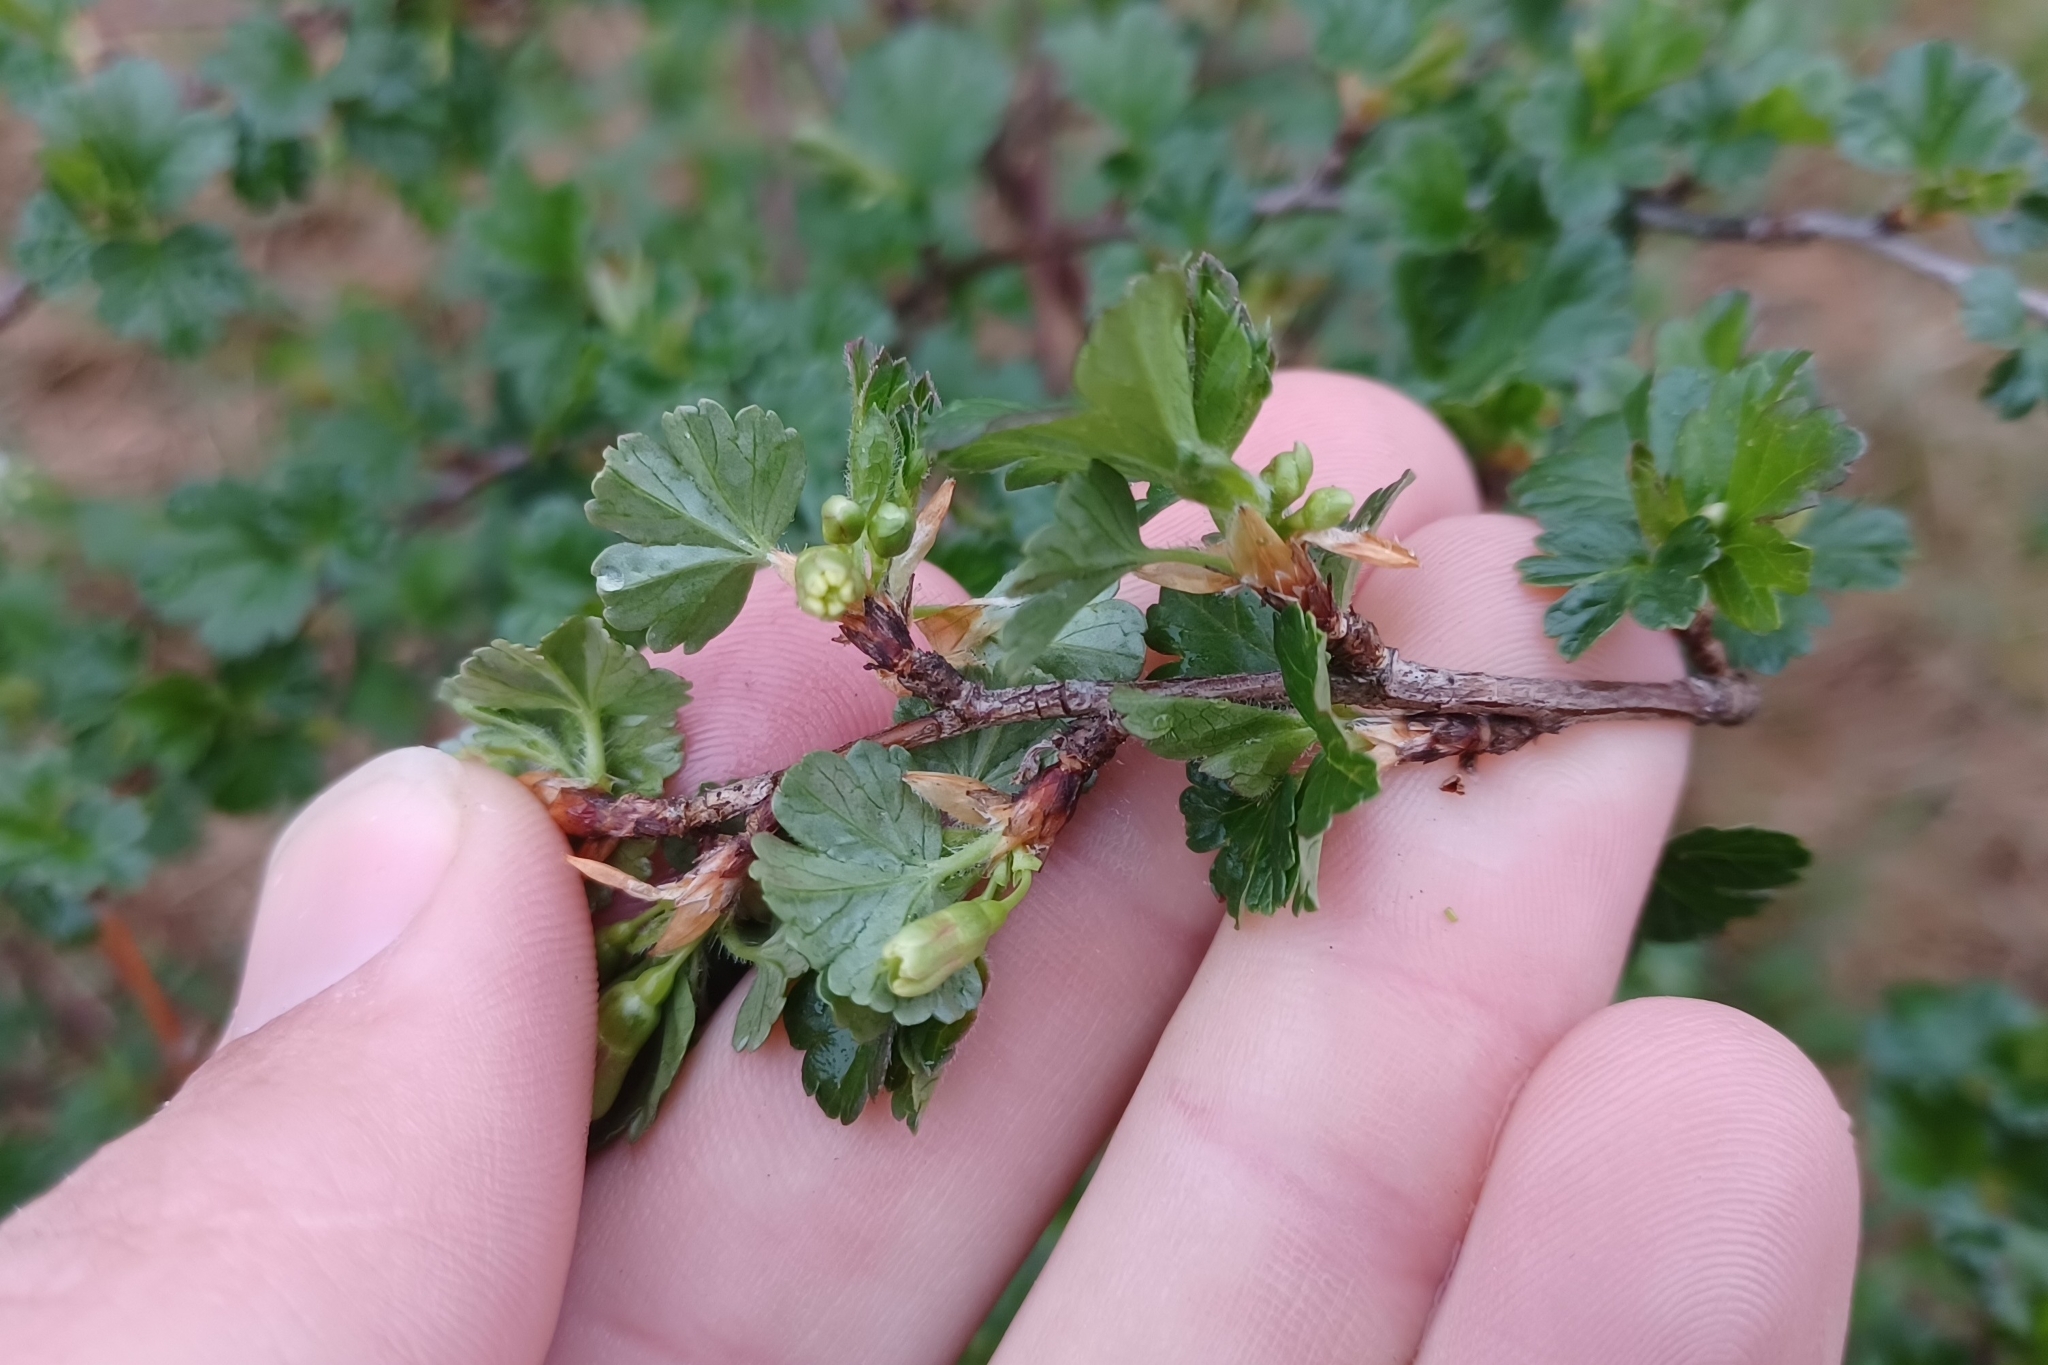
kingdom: Plantae
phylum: Tracheophyta
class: Magnoliopsida
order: Saxifragales
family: Grossulariaceae
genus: Ribes
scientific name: Ribes hirtellum
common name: Hairy gooseberry
